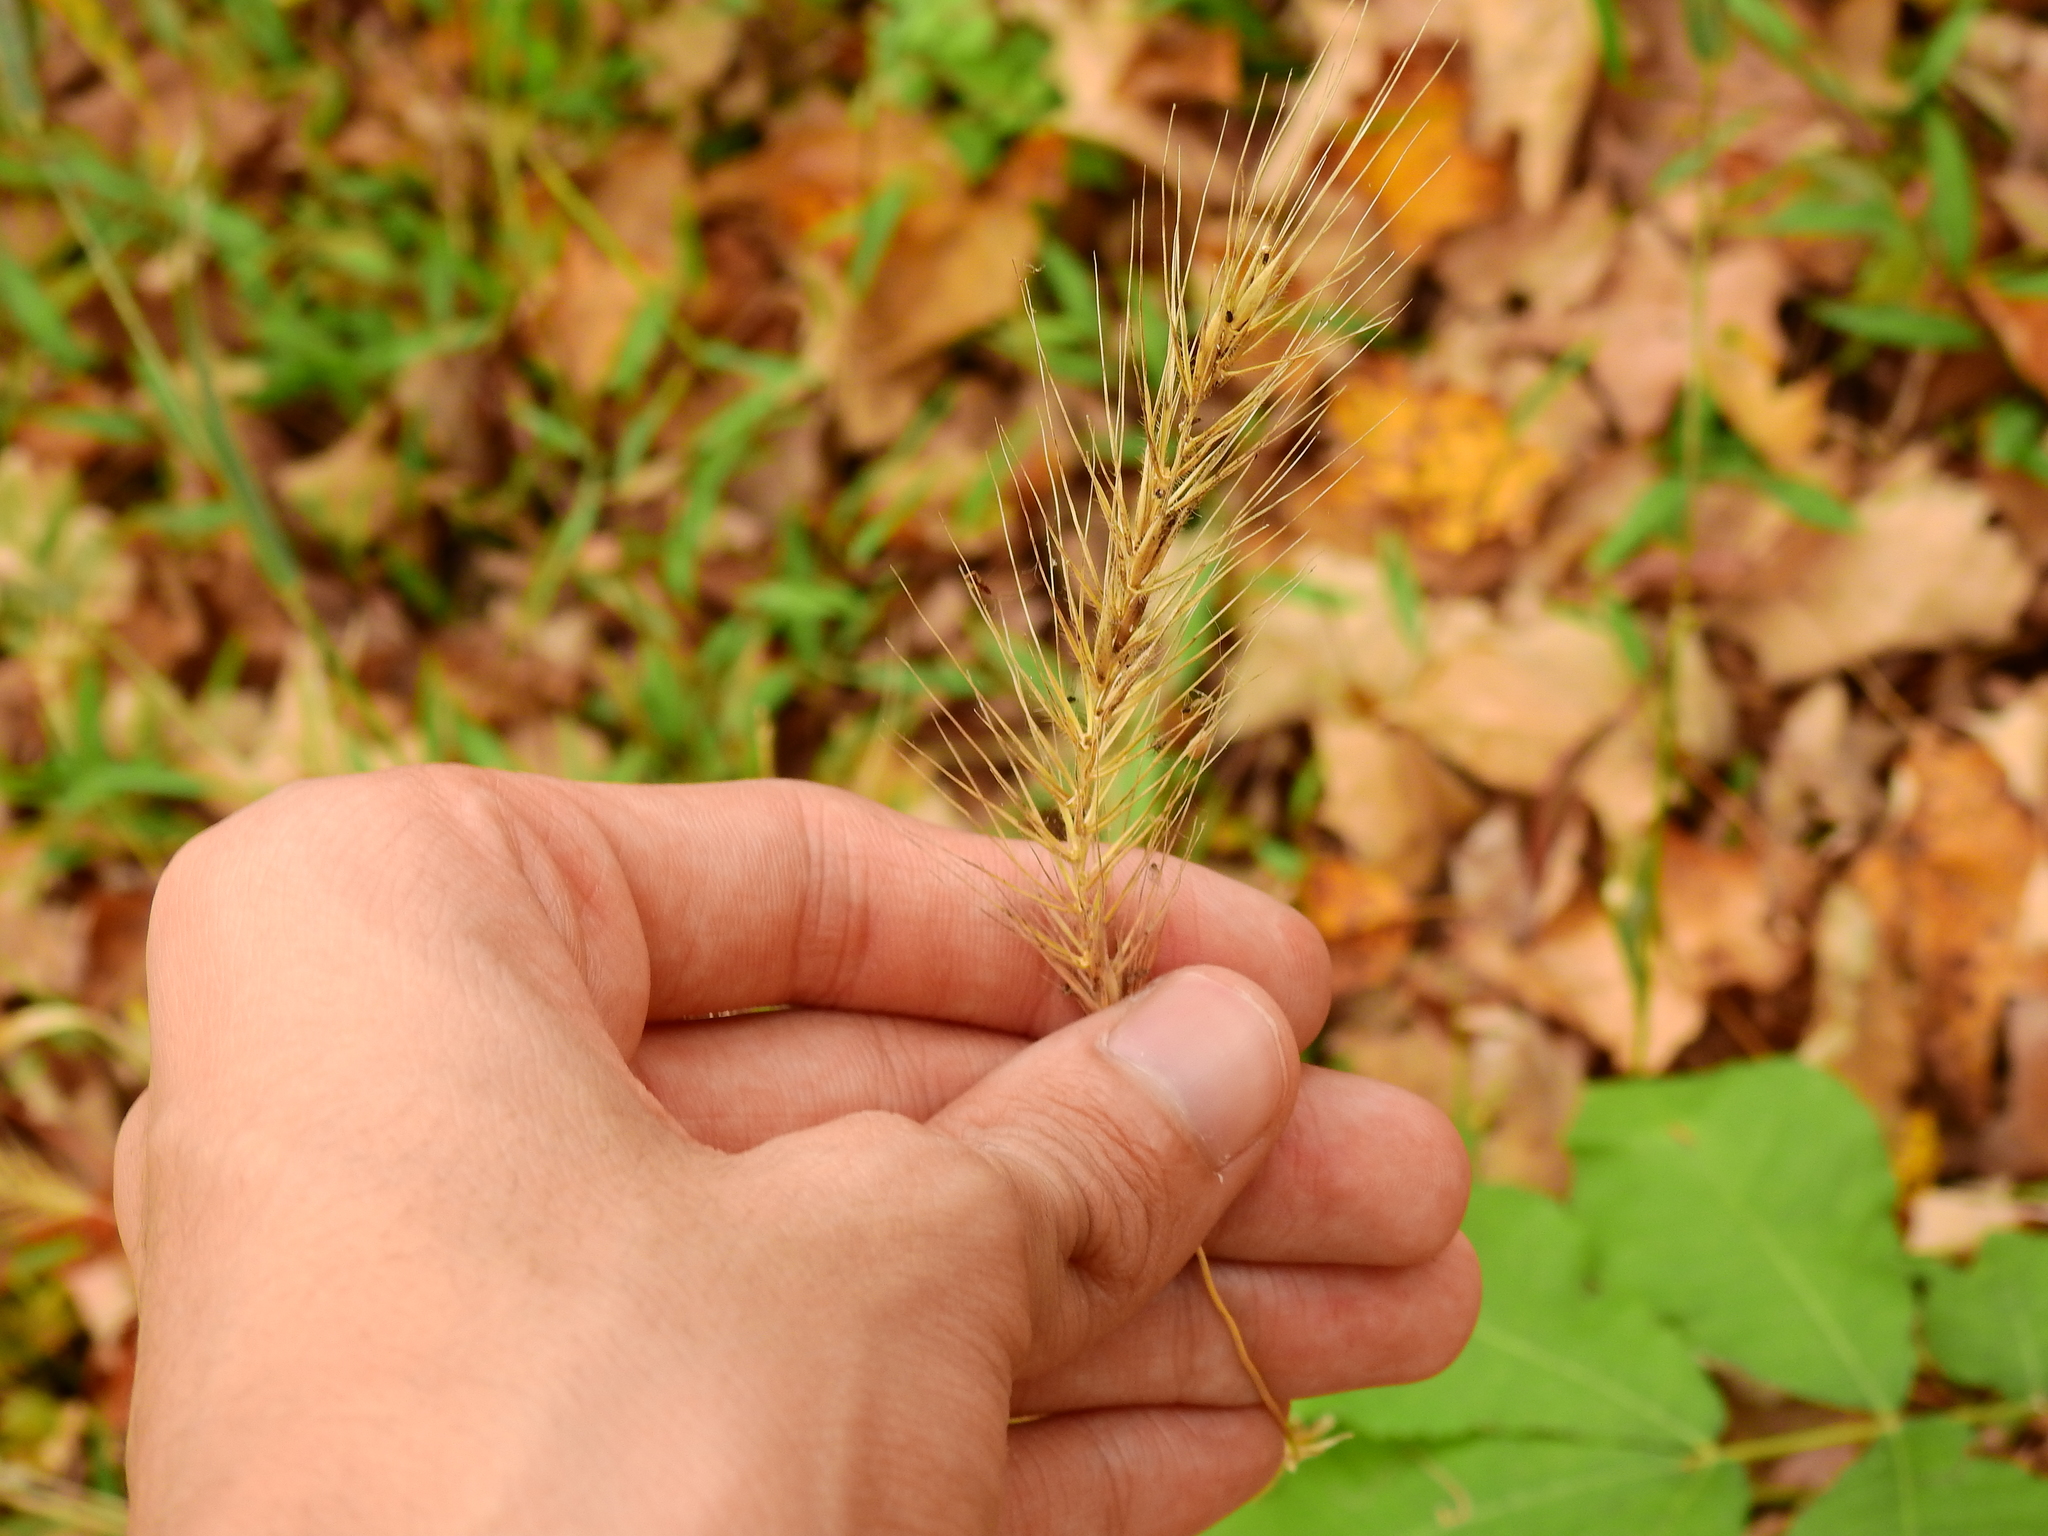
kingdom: Plantae
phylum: Tracheophyta
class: Liliopsida
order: Poales
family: Poaceae
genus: Elymus
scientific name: Elymus villosus
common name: Downy wild rye
